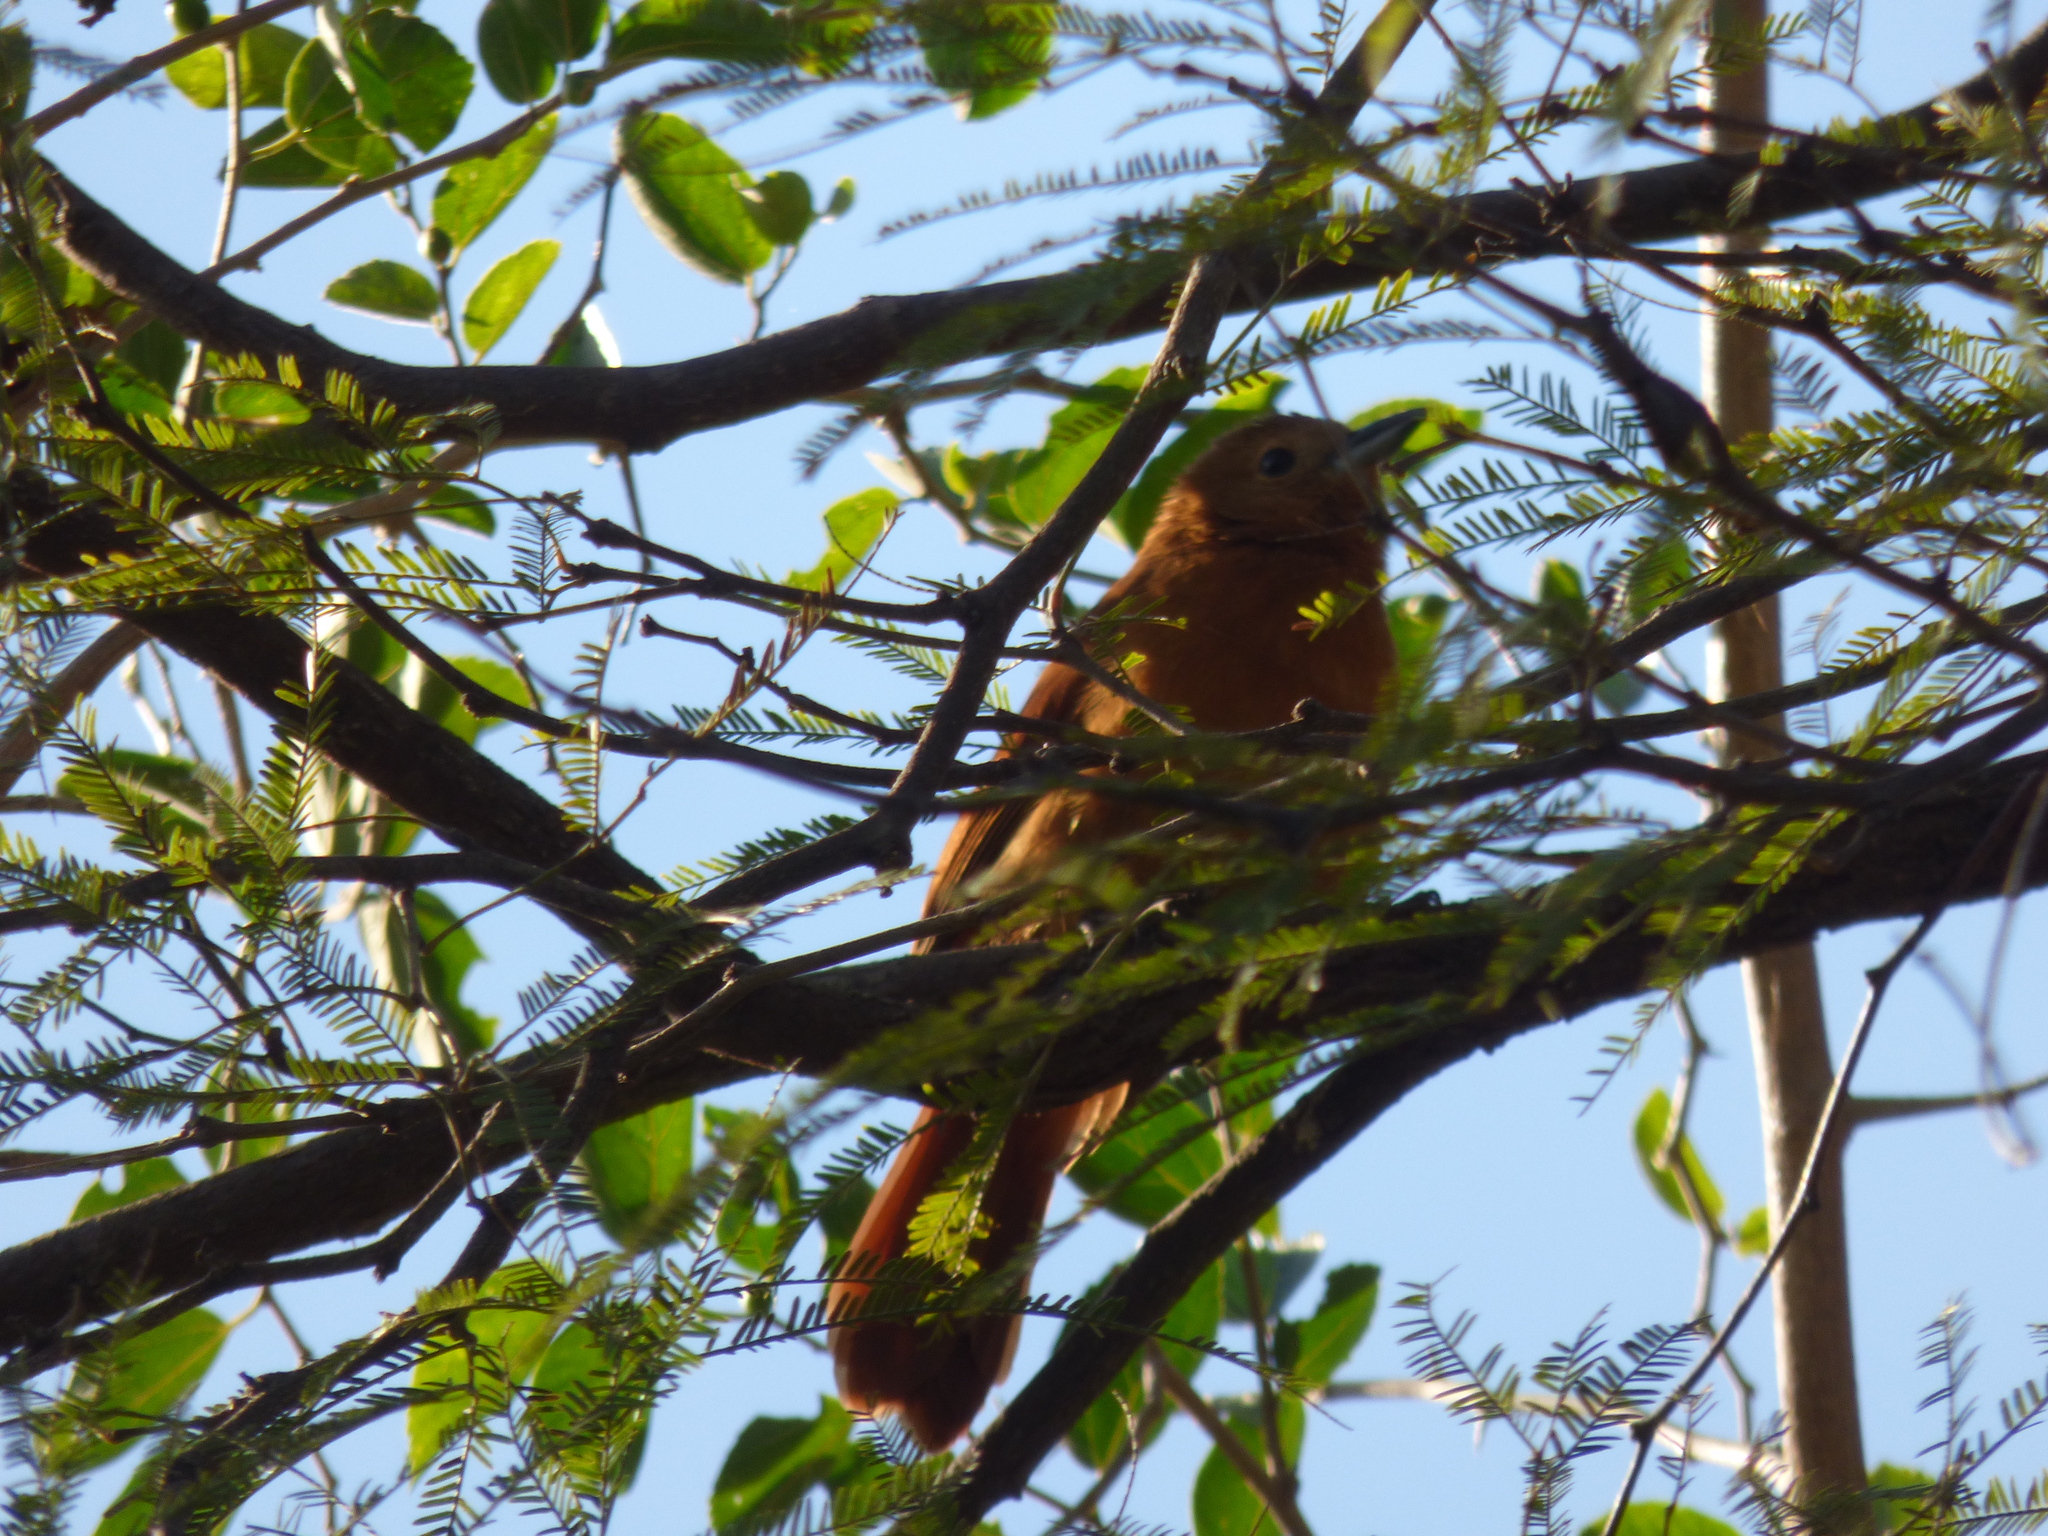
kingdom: Animalia
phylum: Chordata
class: Aves
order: Passeriformes
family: Thraupidae
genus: Tachyphonus
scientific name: Tachyphonus rufus
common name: White-lined tanager
